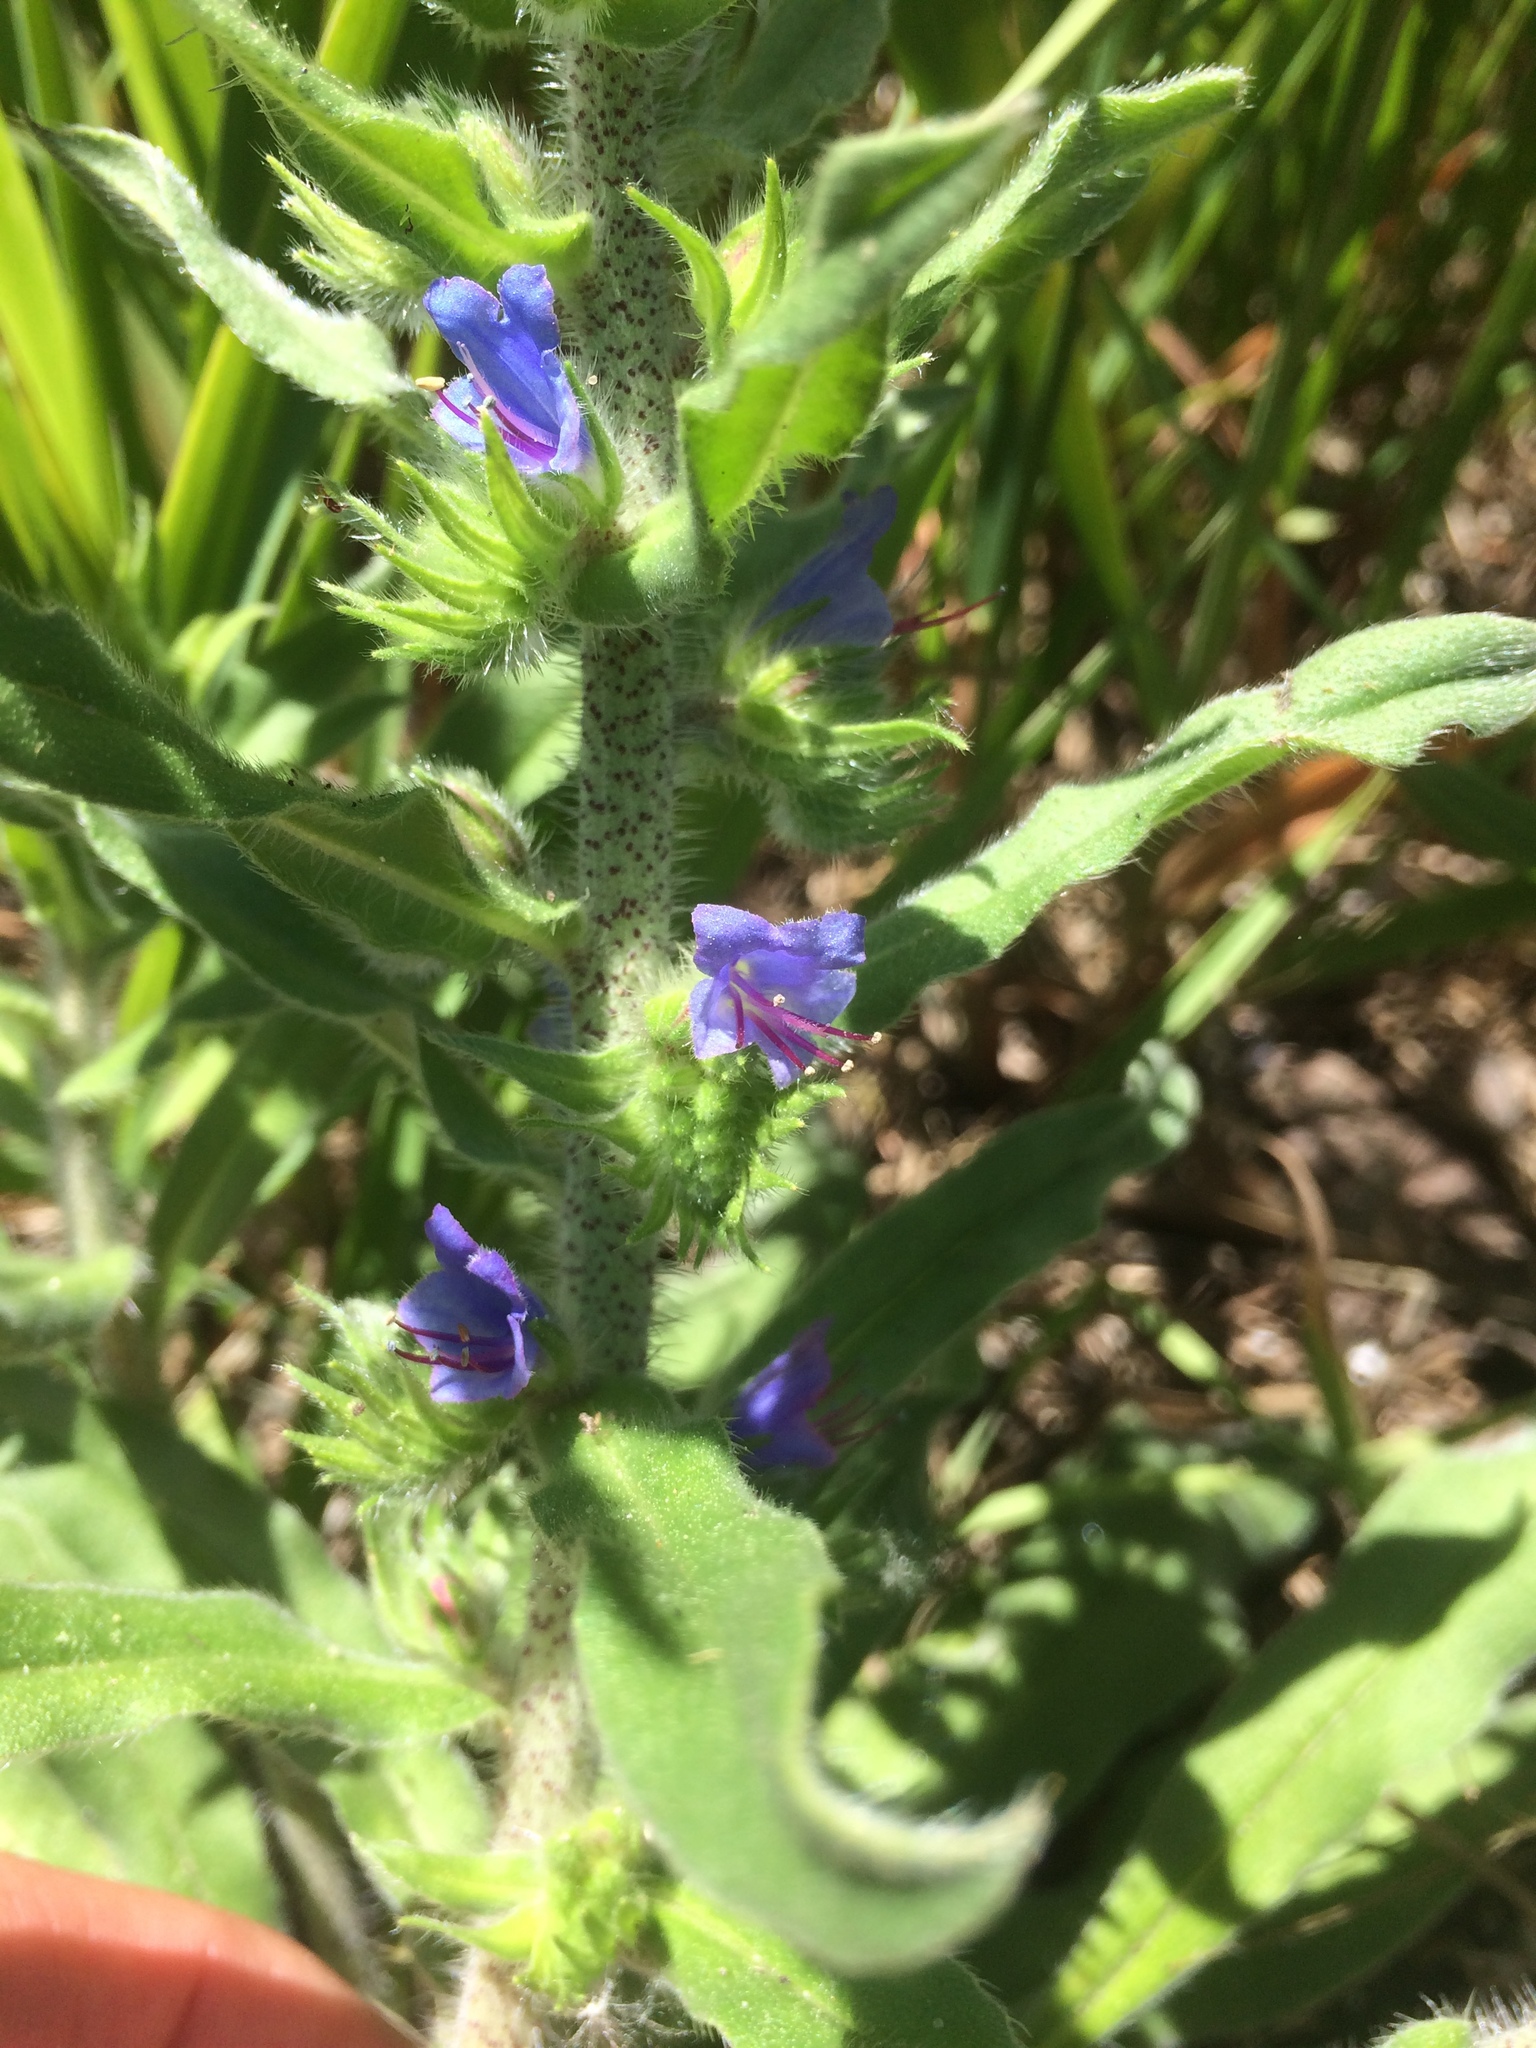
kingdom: Plantae
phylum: Tracheophyta
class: Magnoliopsida
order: Boraginales
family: Boraginaceae
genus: Echium
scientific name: Echium vulgare
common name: Common viper's bugloss
